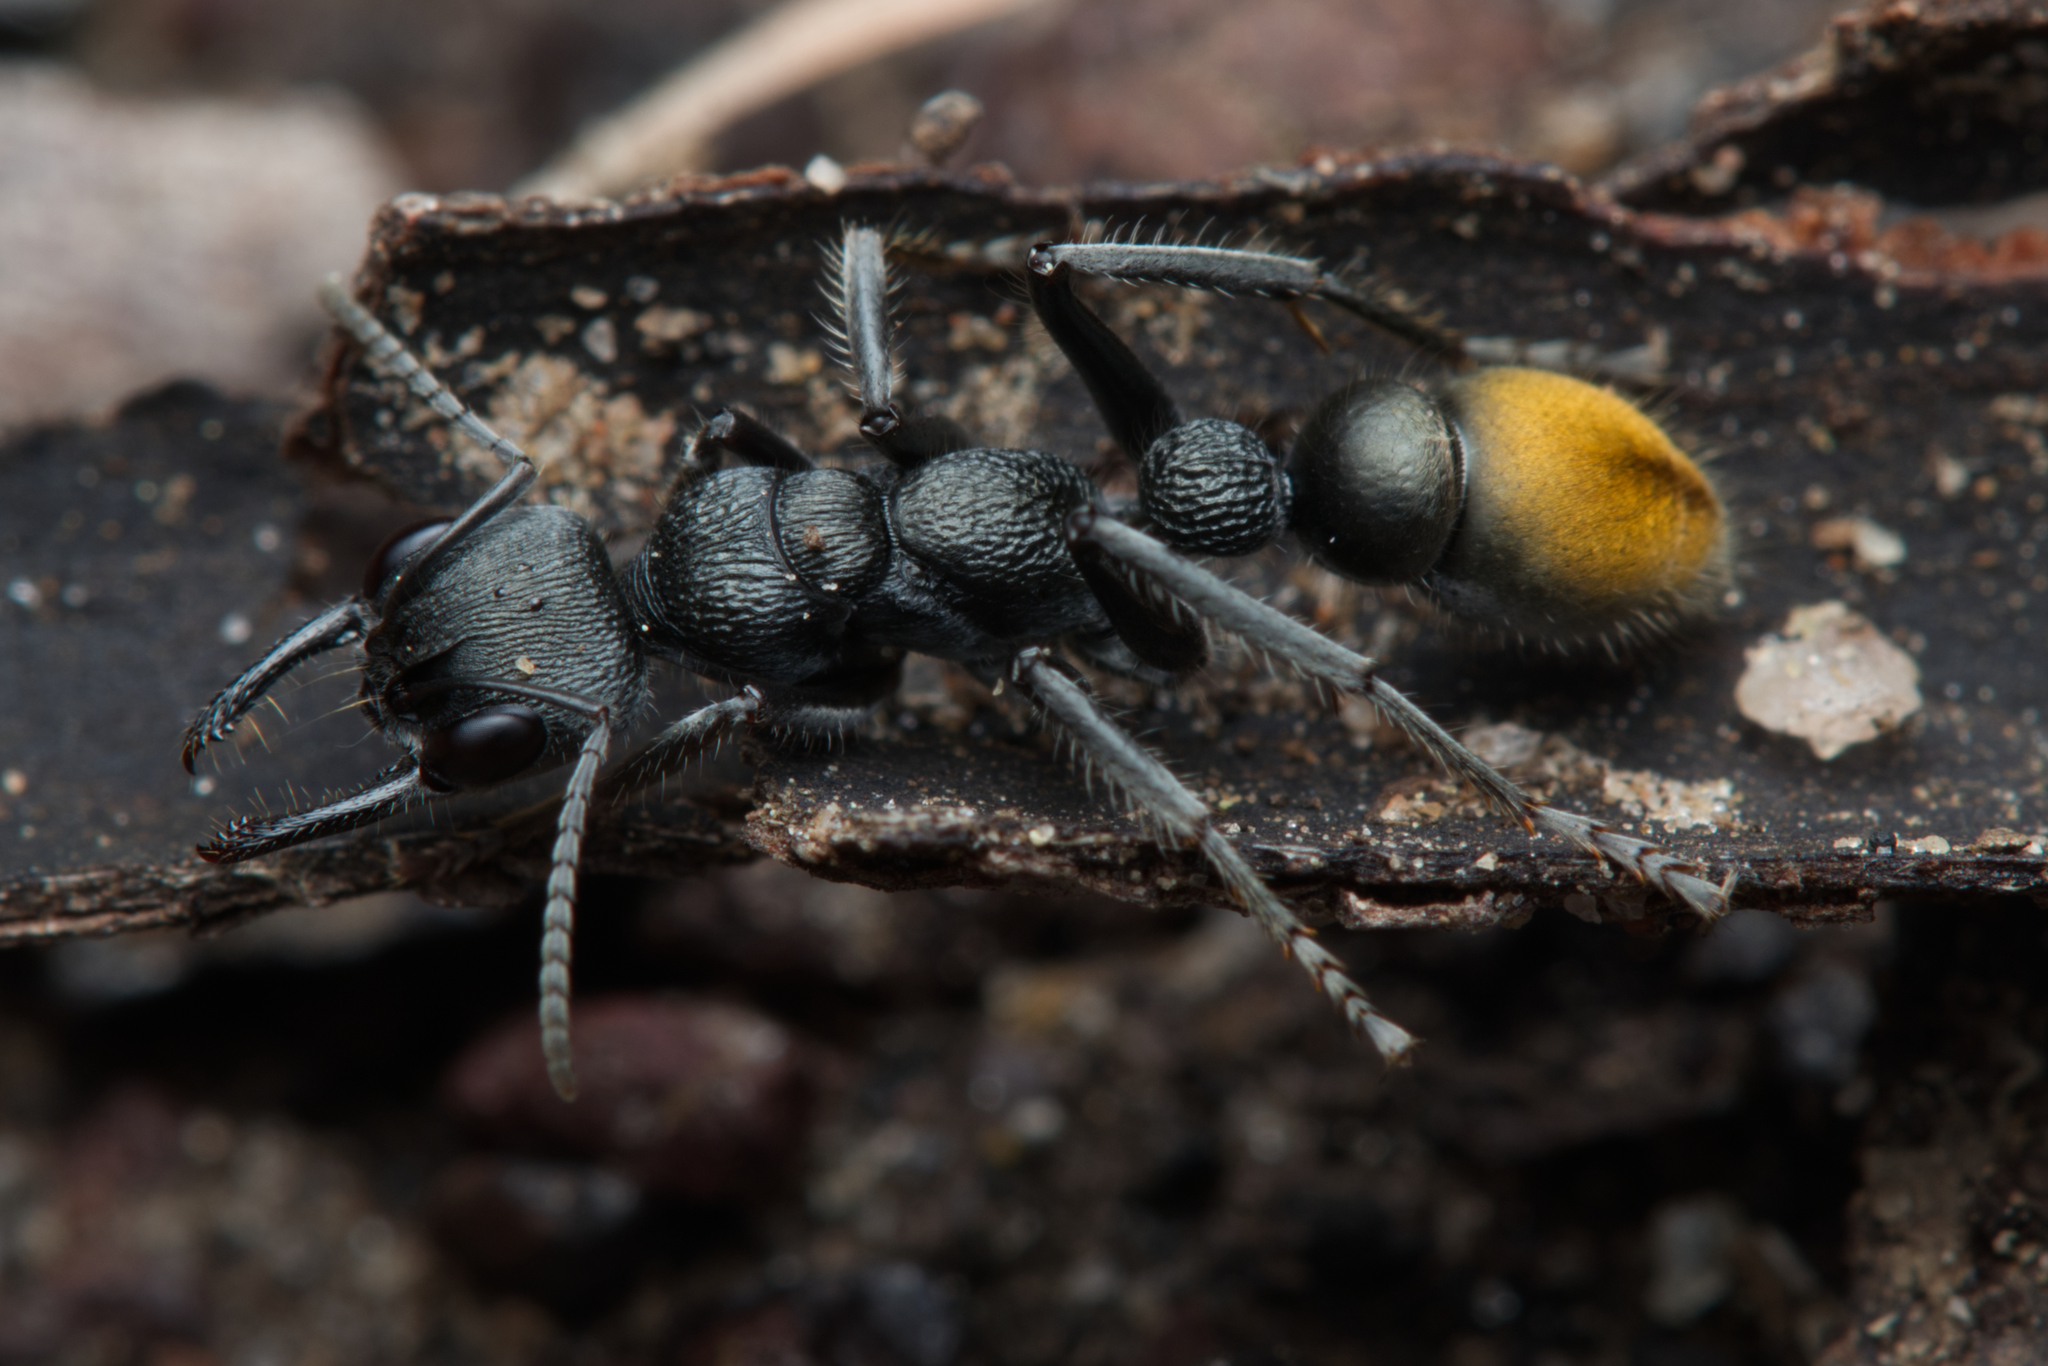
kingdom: Animalia
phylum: Arthropoda
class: Insecta
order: Hymenoptera
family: Formicidae
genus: Myrmecia
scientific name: Myrmecia gilberti
